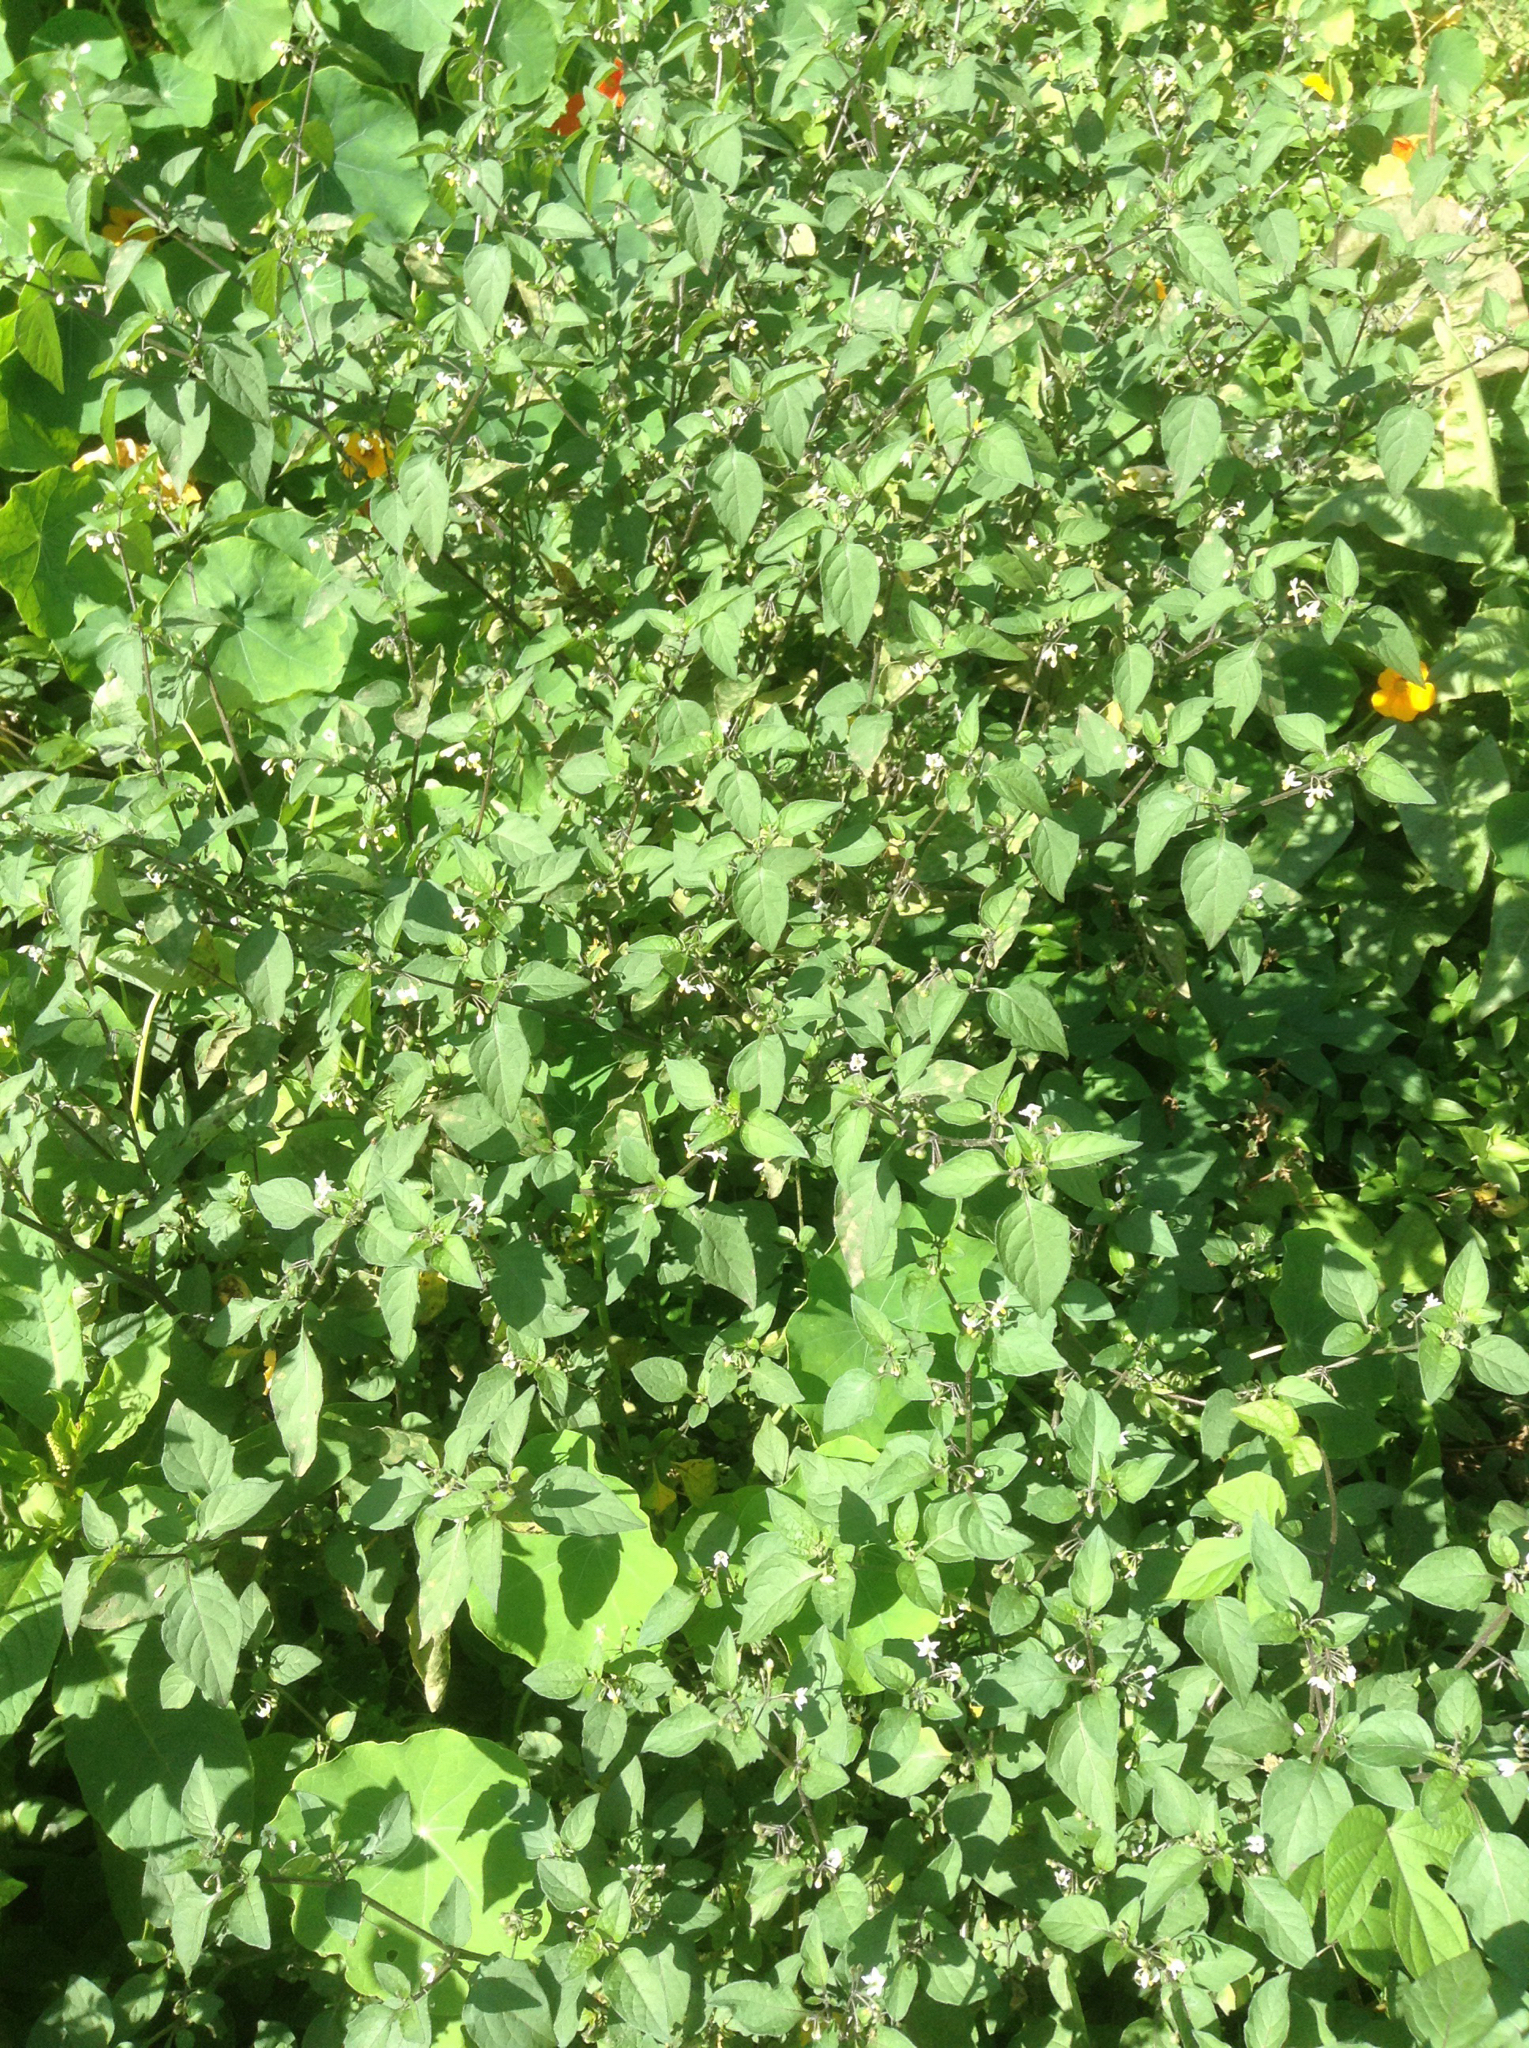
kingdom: Plantae
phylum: Tracheophyta
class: Magnoliopsida
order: Solanales
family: Solanaceae
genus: Solanum
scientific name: Solanum nigrum
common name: Black nightshade
